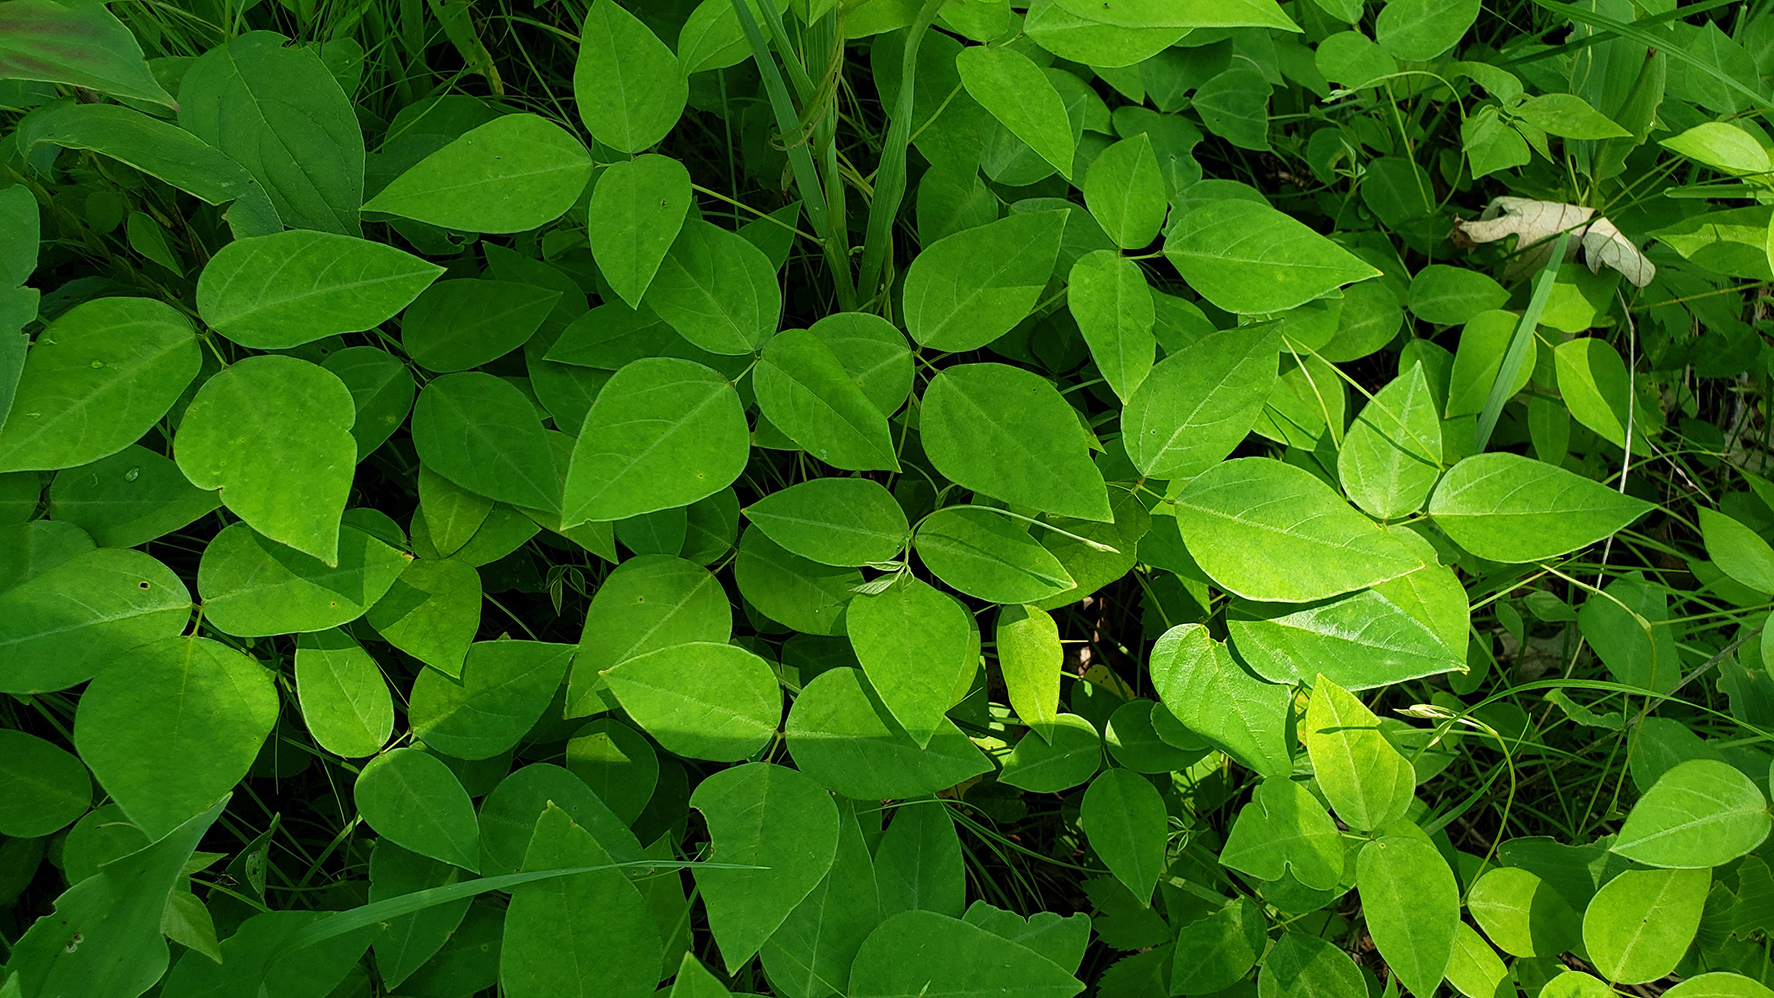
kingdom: Plantae
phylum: Tracheophyta
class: Magnoliopsida
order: Fabales
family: Fabaceae
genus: Amphicarpaea
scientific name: Amphicarpaea bracteata
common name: American hog peanut
